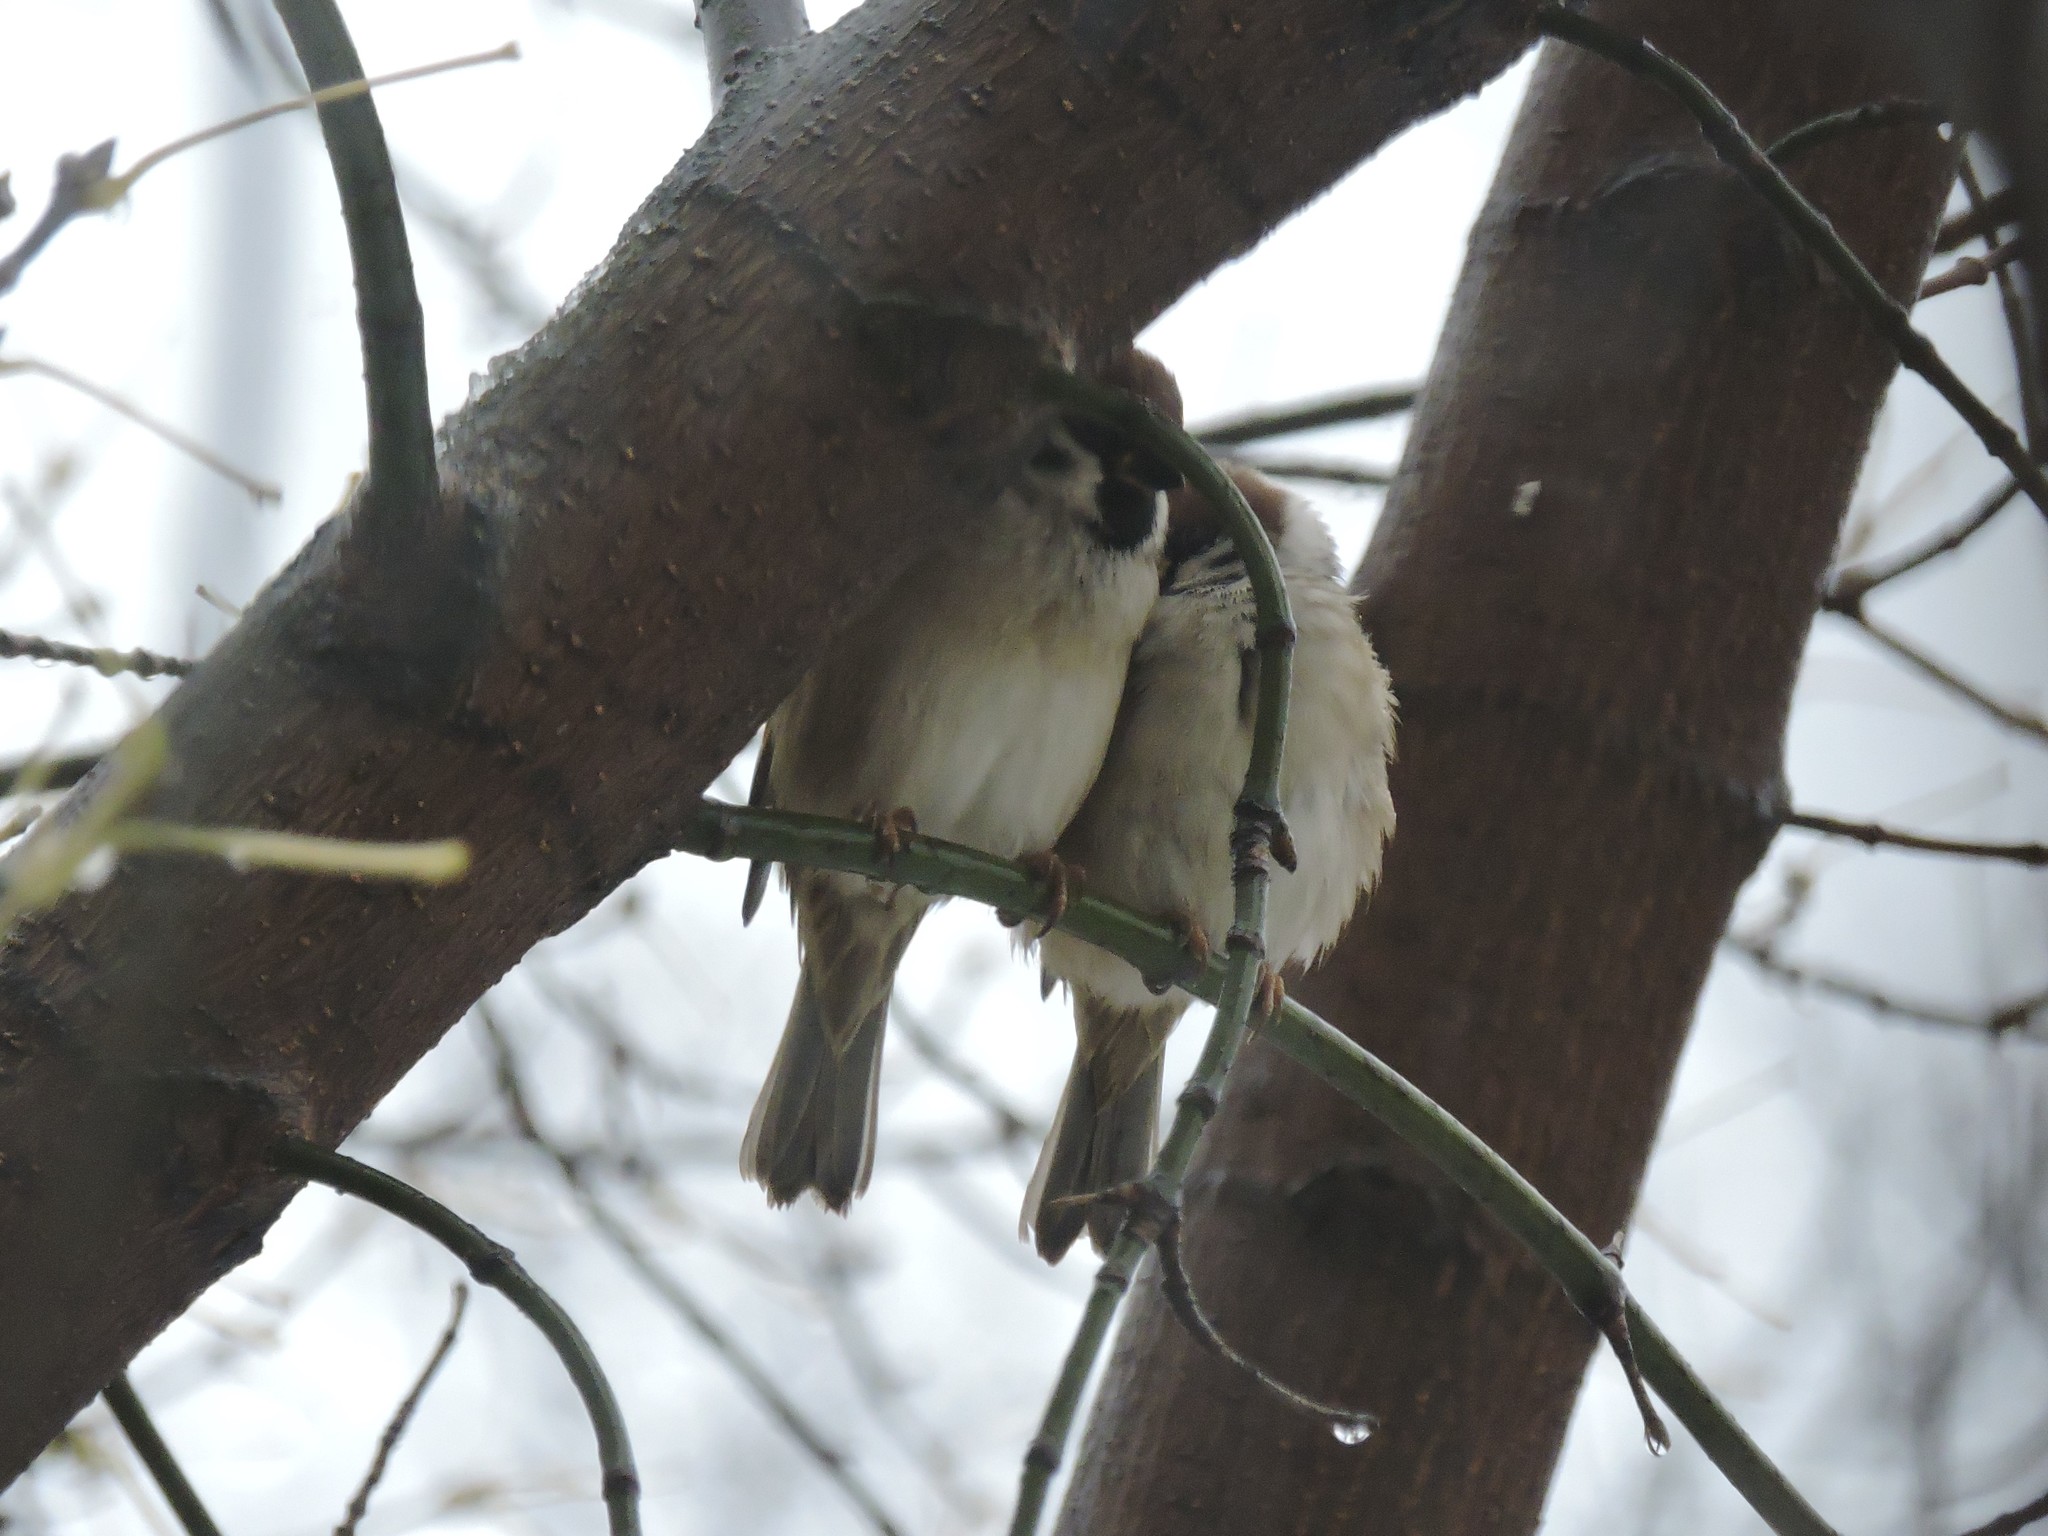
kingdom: Animalia
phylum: Chordata
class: Aves
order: Passeriformes
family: Passeridae
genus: Passer
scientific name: Passer montanus
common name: Eurasian tree sparrow
